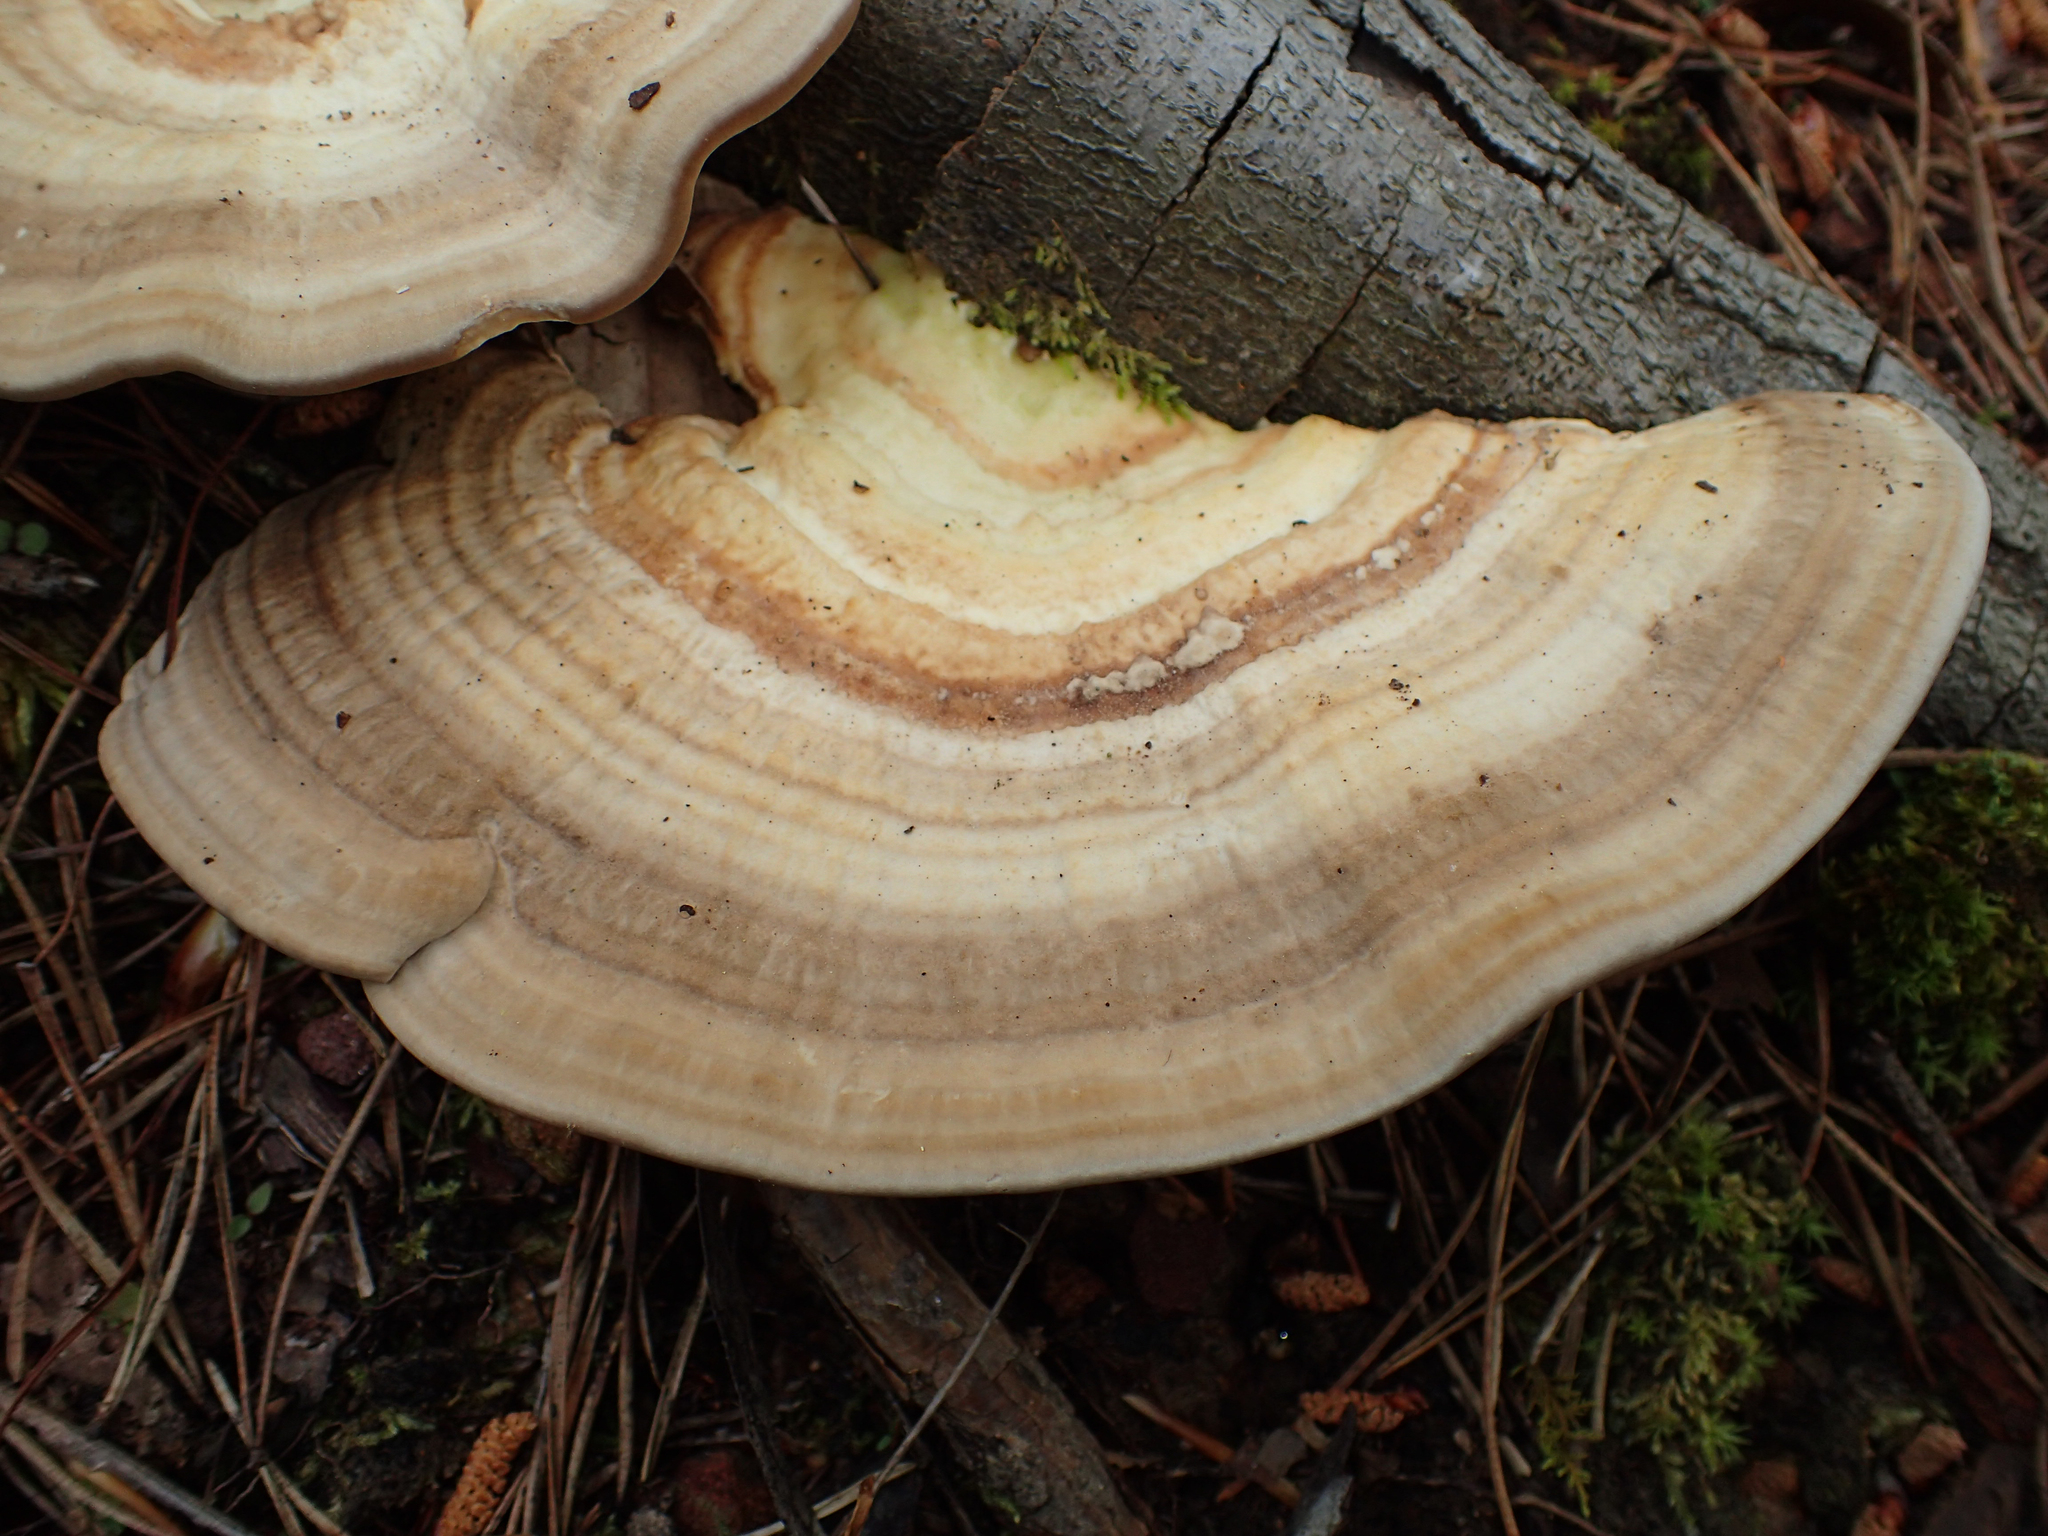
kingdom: Fungi
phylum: Basidiomycota
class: Agaricomycetes
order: Polyporales
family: Polyporaceae
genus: Trametes
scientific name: Trametes lactinea
